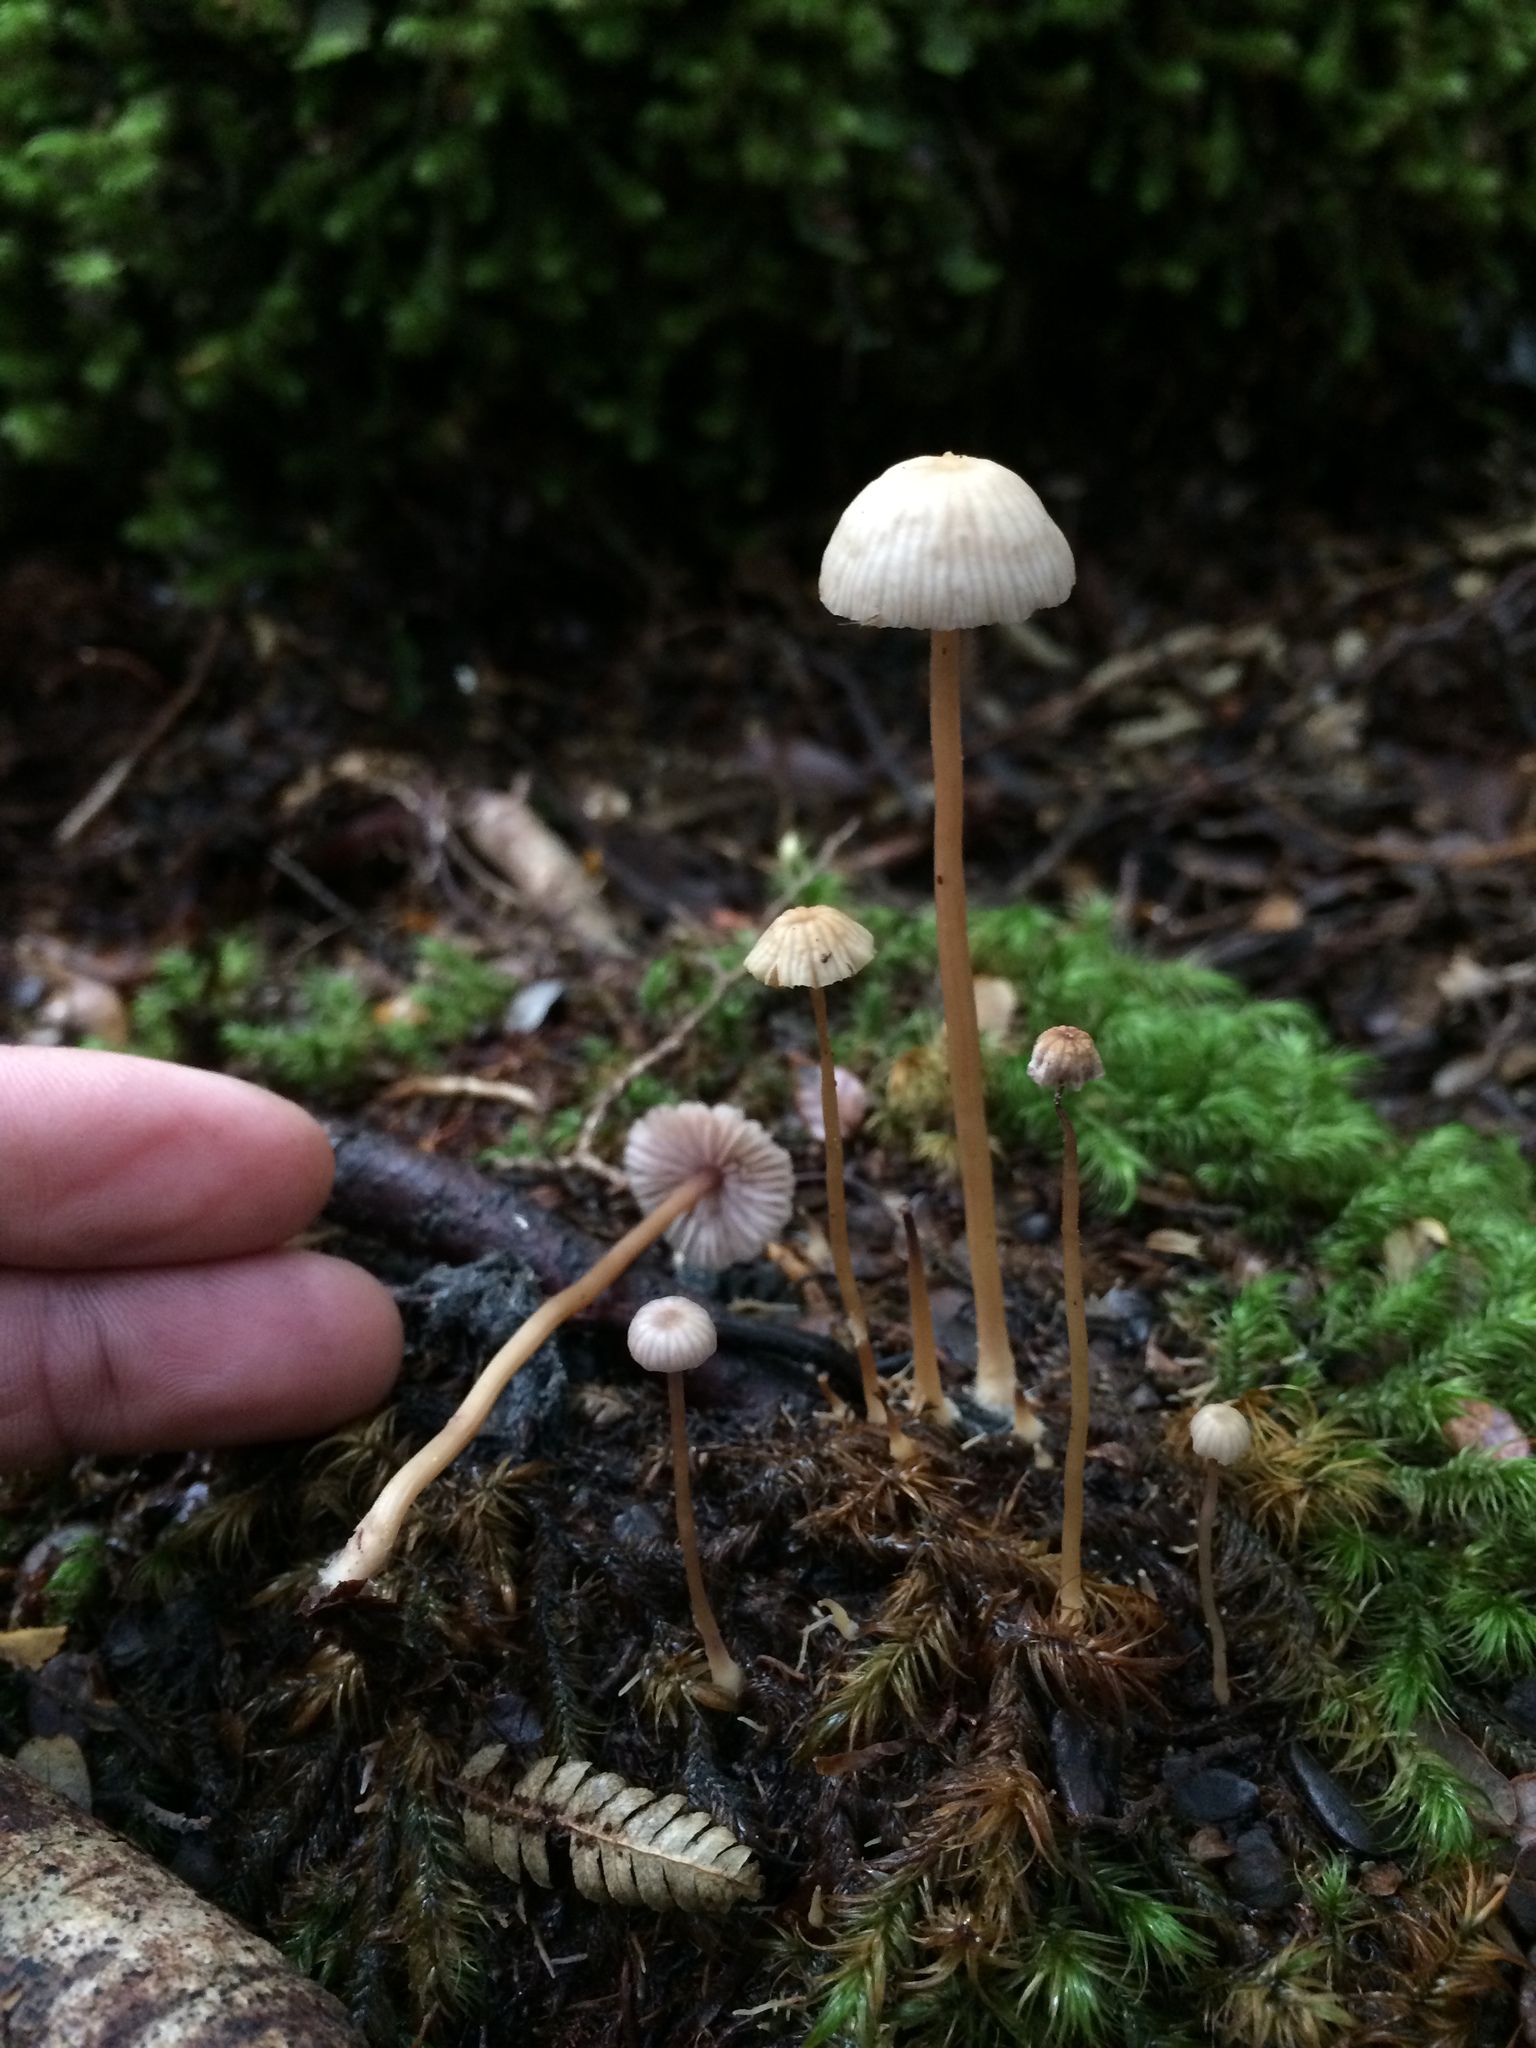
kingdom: Fungi
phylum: Basidiomycota
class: Agaricomycetes
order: Agaricales
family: Hydnangiaceae
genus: Laccaria
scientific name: Laccaria masoniae
